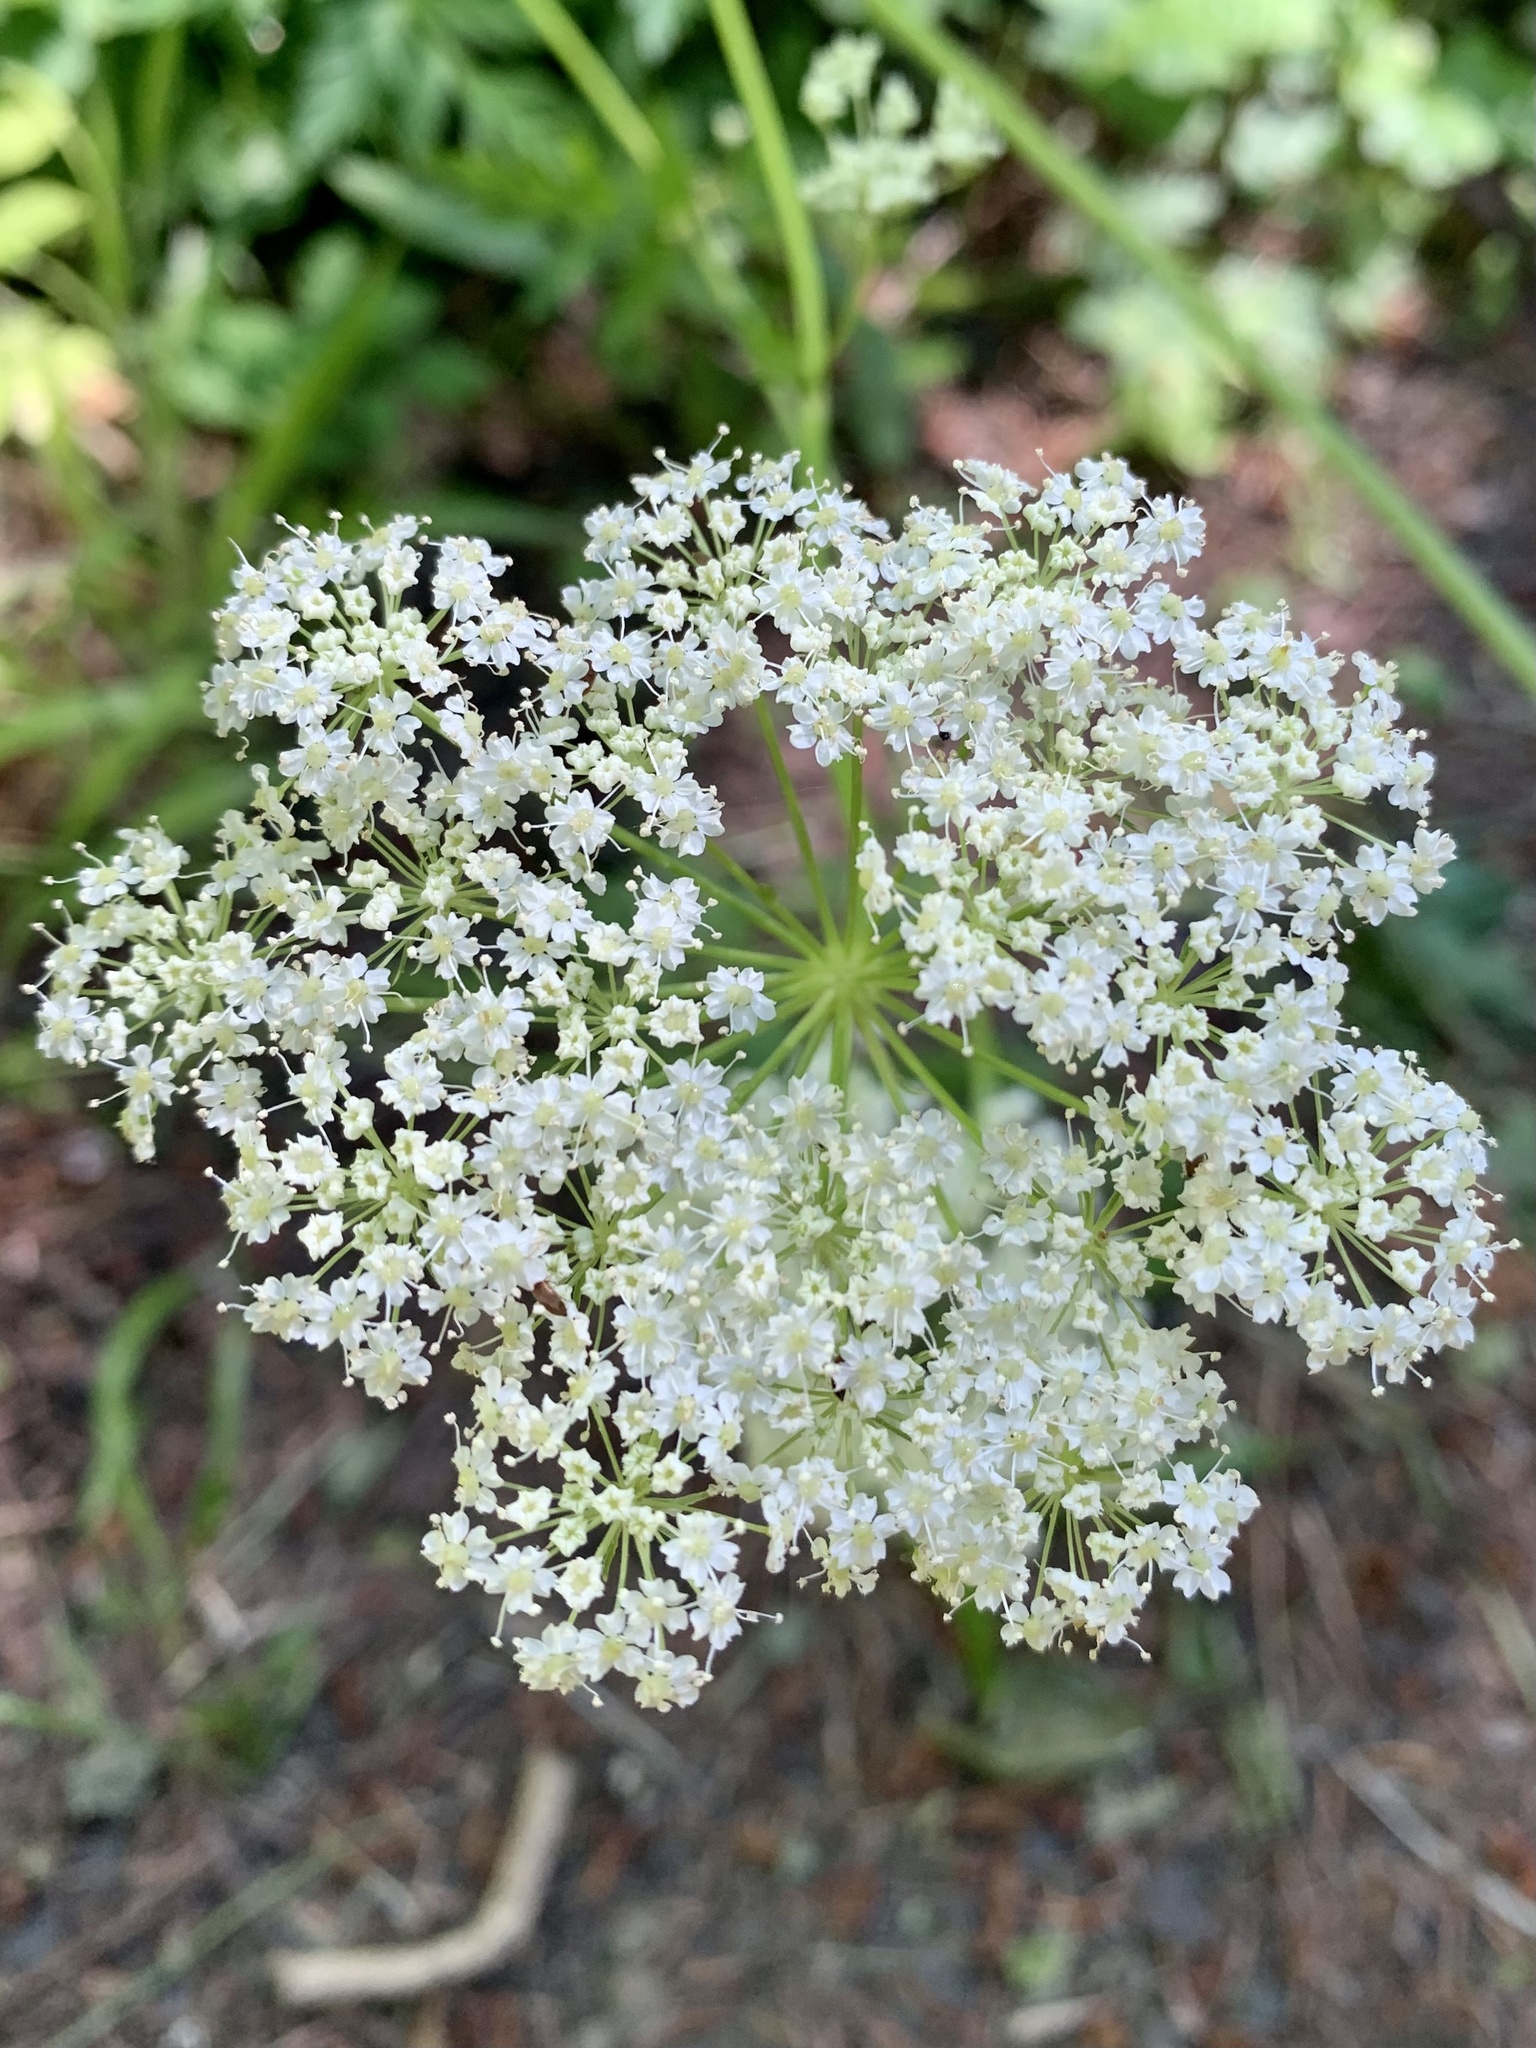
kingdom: Plantae
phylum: Tracheophyta
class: Magnoliopsida
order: Apiales
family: Apiaceae
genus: Ligusticum
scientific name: Ligusticum grayi
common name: Gray's licorice-root
